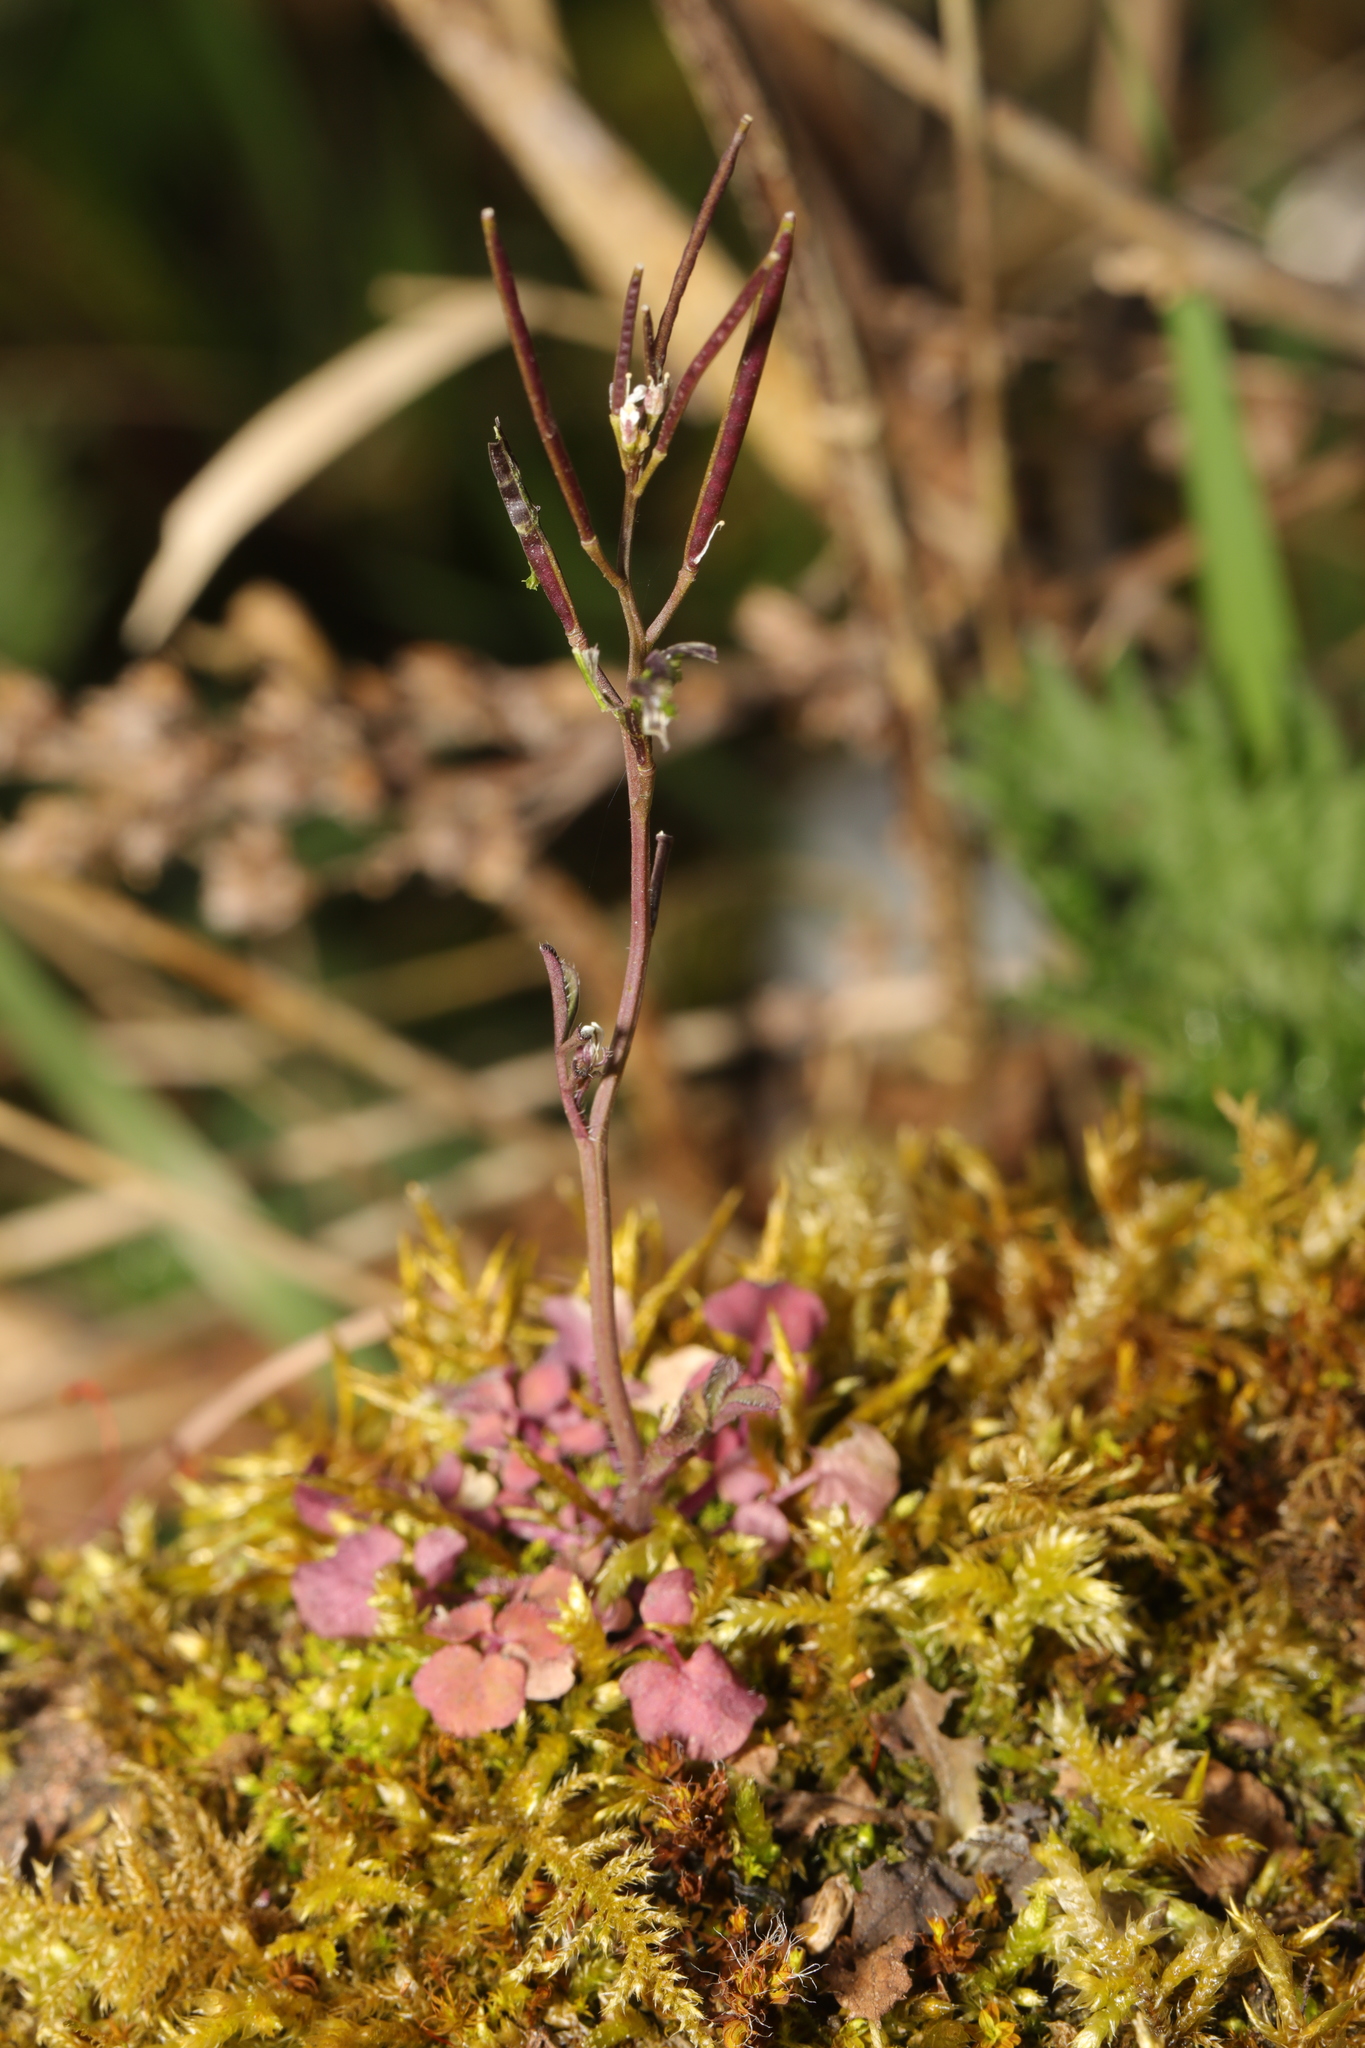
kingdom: Plantae
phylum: Tracheophyta
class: Magnoliopsida
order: Brassicales
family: Brassicaceae
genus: Cardamine
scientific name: Cardamine flexuosa
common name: Woodland bittercress
